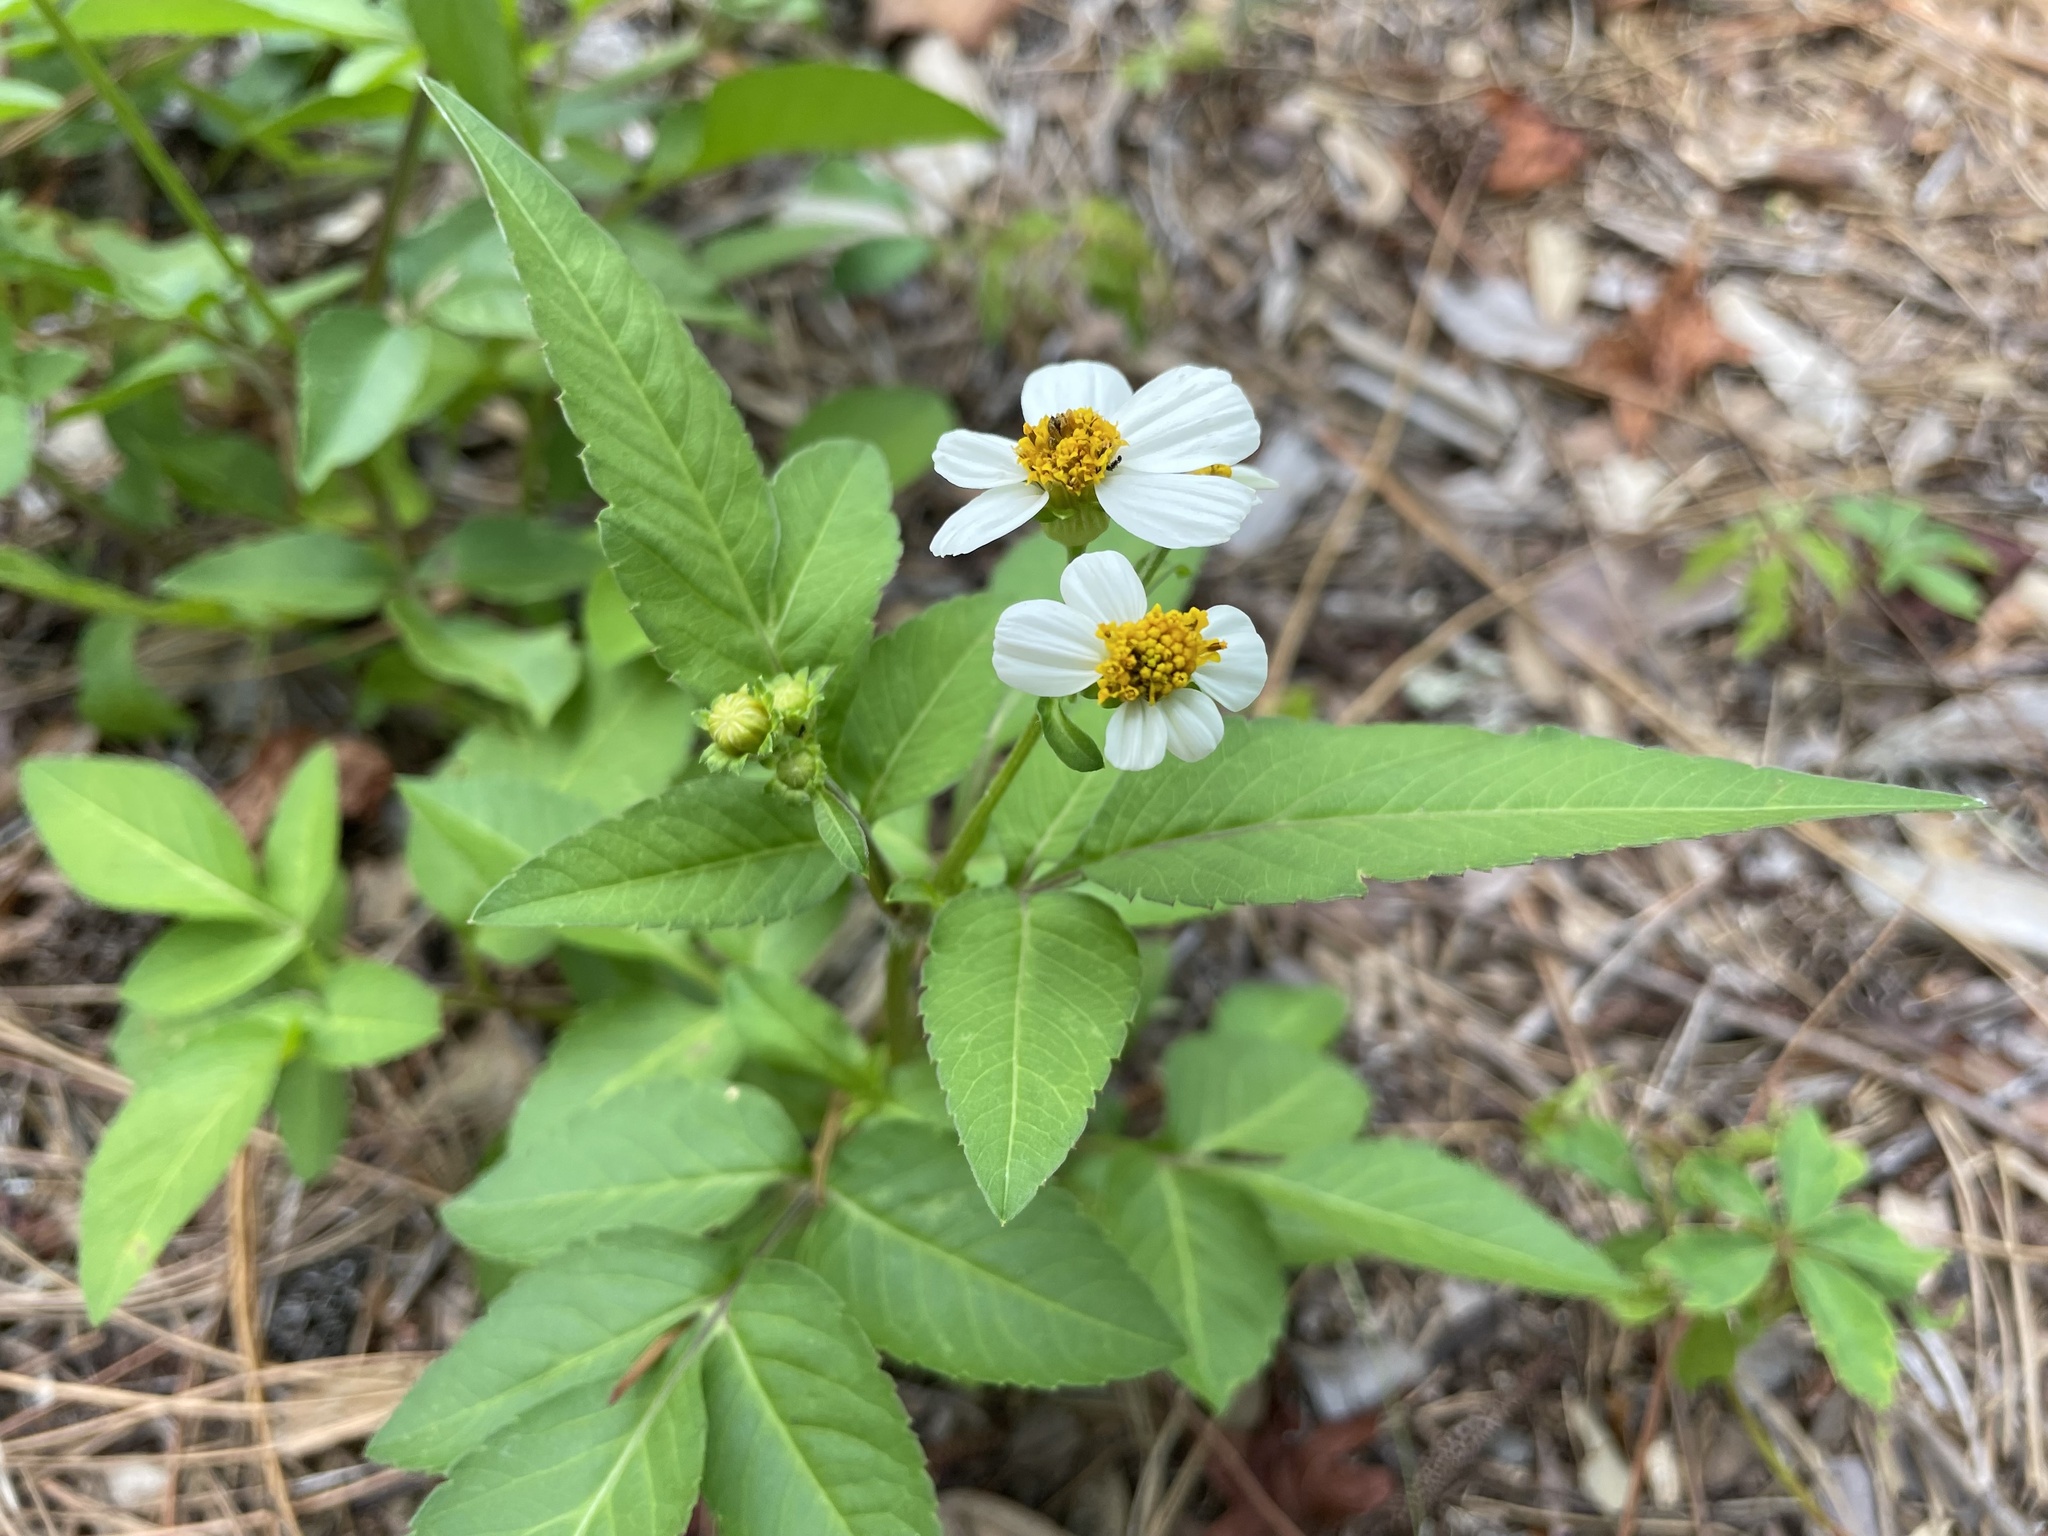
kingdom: Plantae
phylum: Tracheophyta
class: Magnoliopsida
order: Asterales
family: Asteraceae
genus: Bidens
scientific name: Bidens alba
